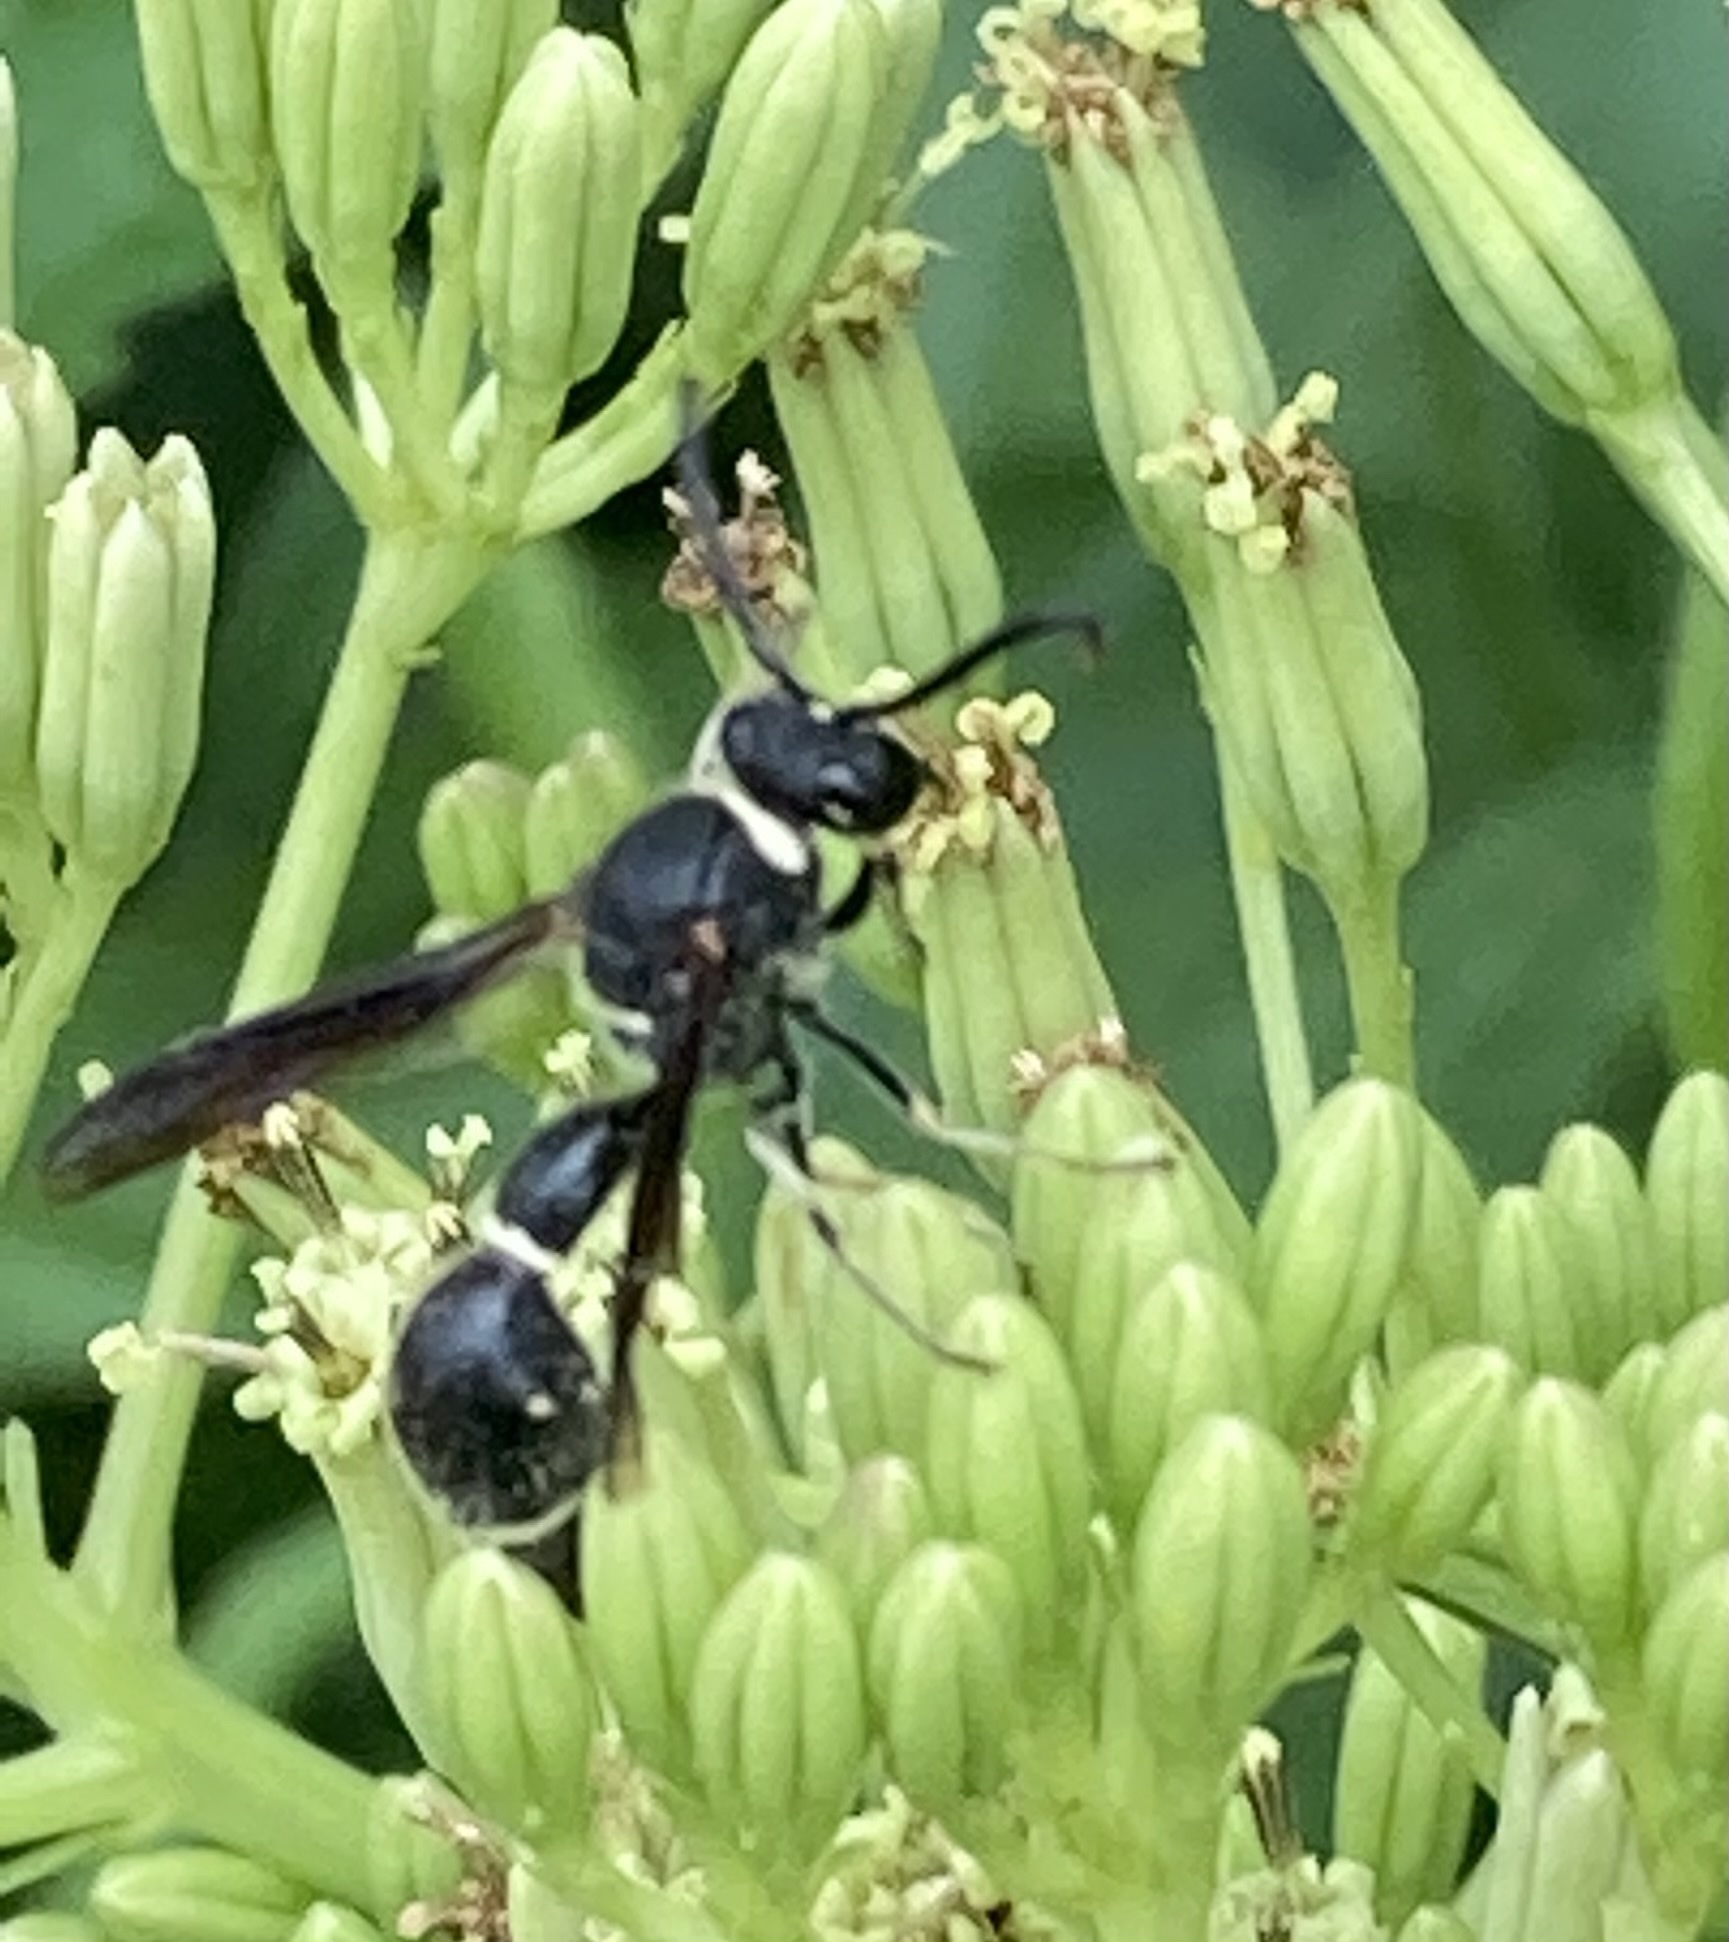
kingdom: Animalia
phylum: Arthropoda
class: Insecta
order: Hymenoptera
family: Vespidae
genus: Eumenes
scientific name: Eumenes fraternus
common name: Fraternal potter wasp
